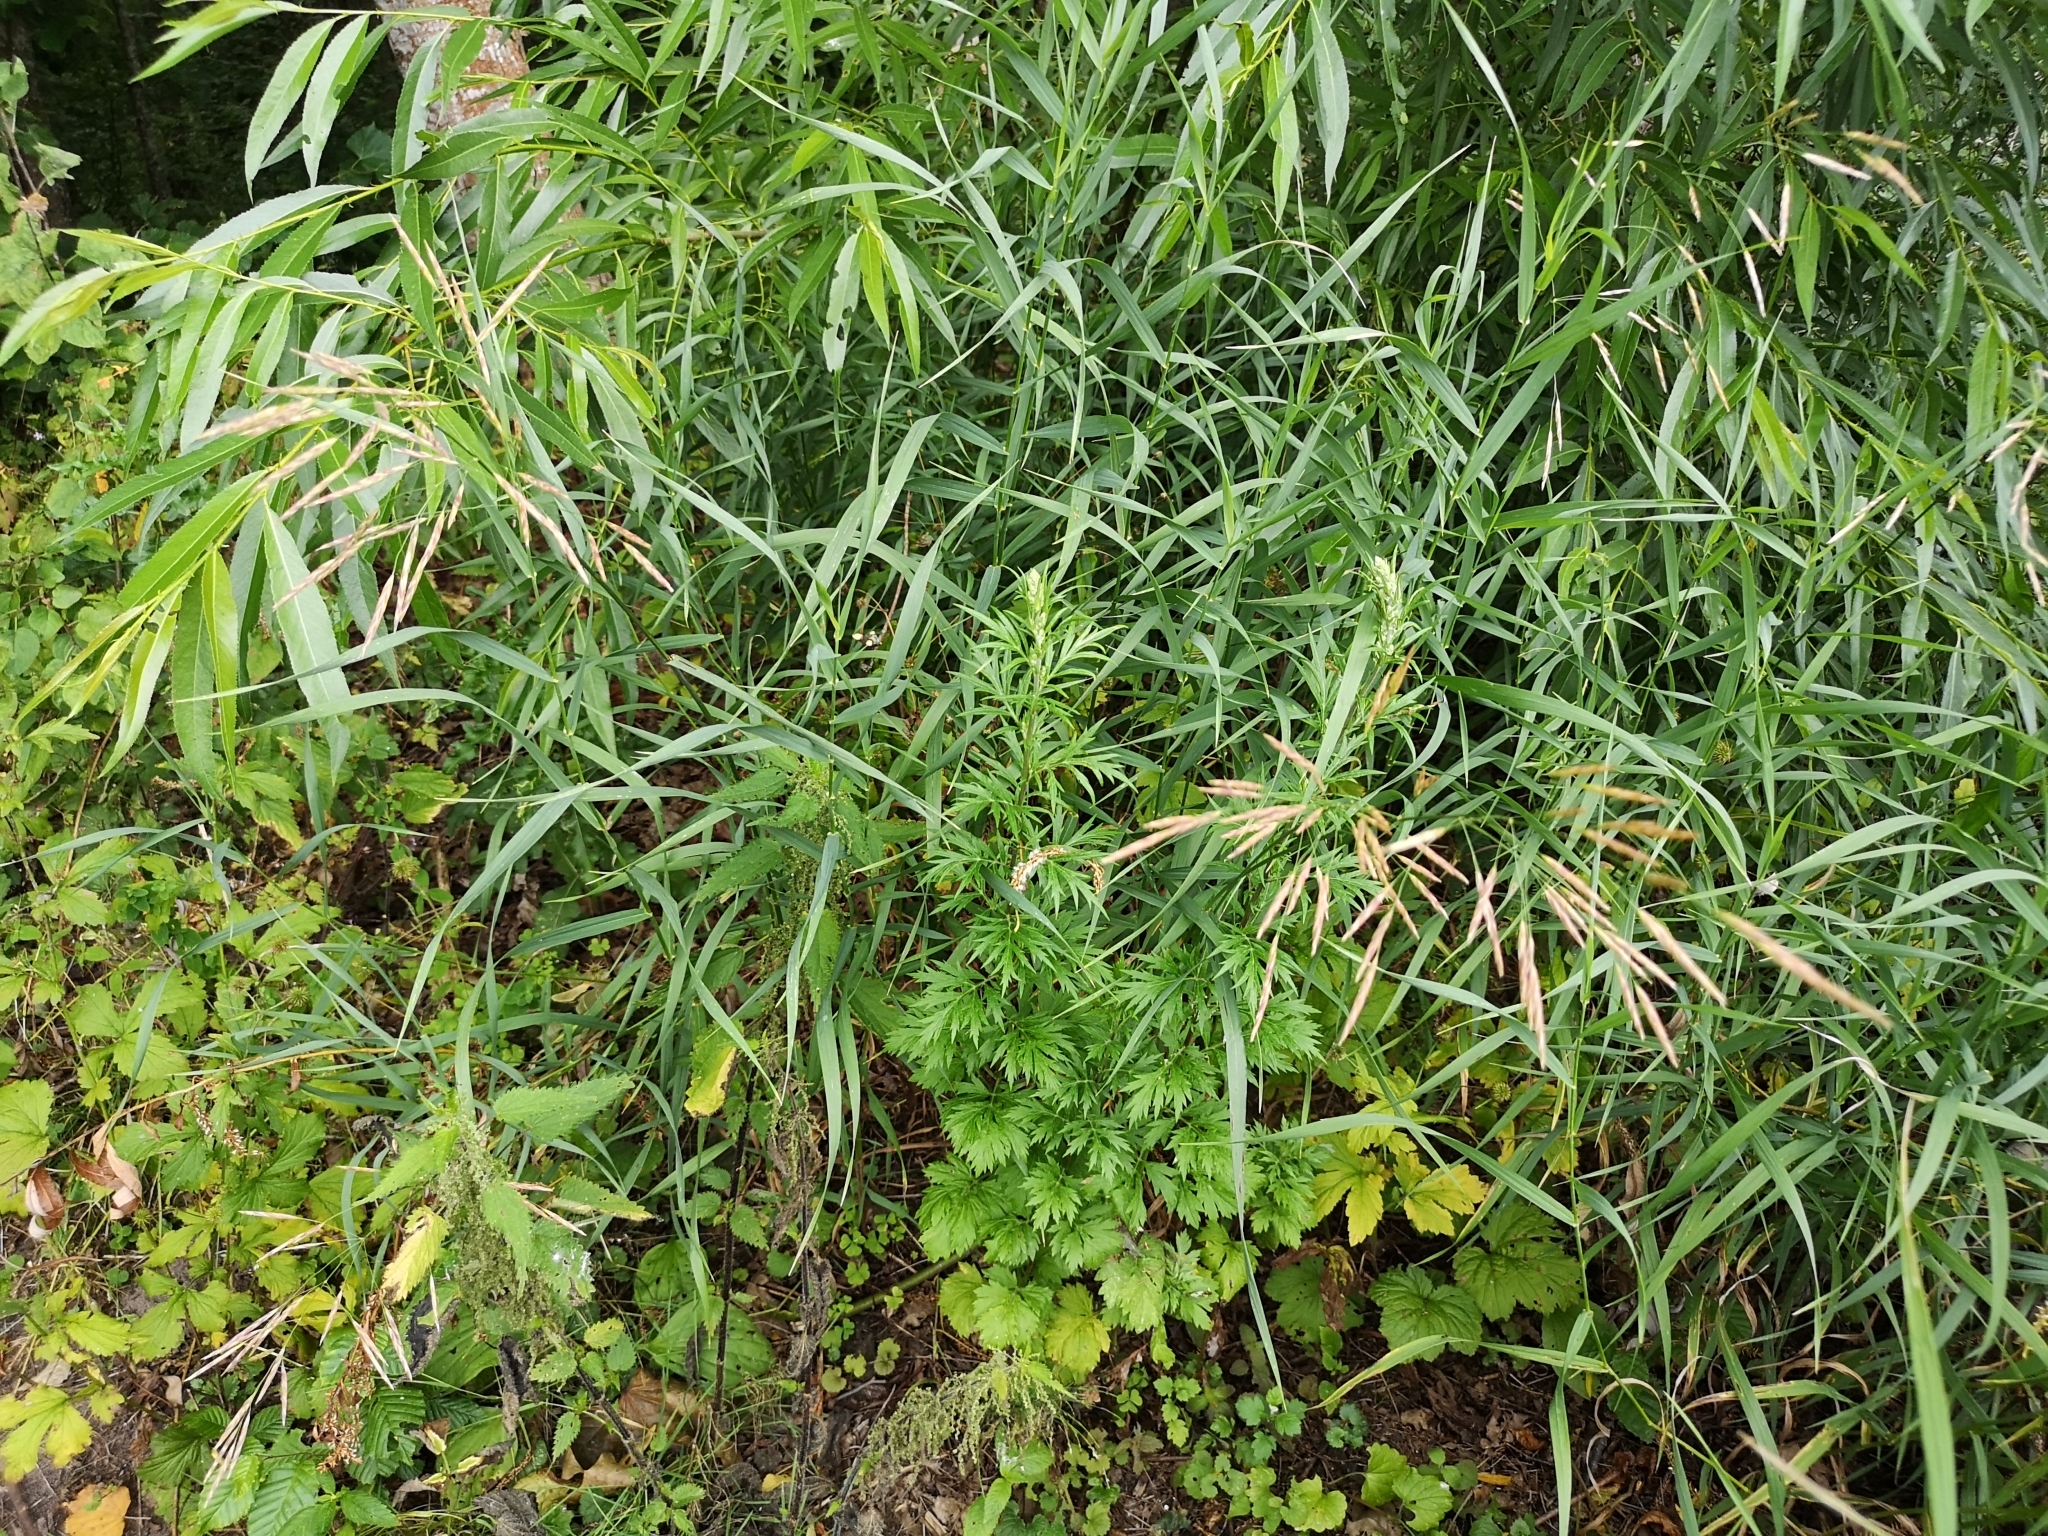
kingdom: Plantae
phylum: Tracheophyta
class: Liliopsida
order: Poales
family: Poaceae
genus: Bromus
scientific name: Bromus inermis
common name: Smooth brome
